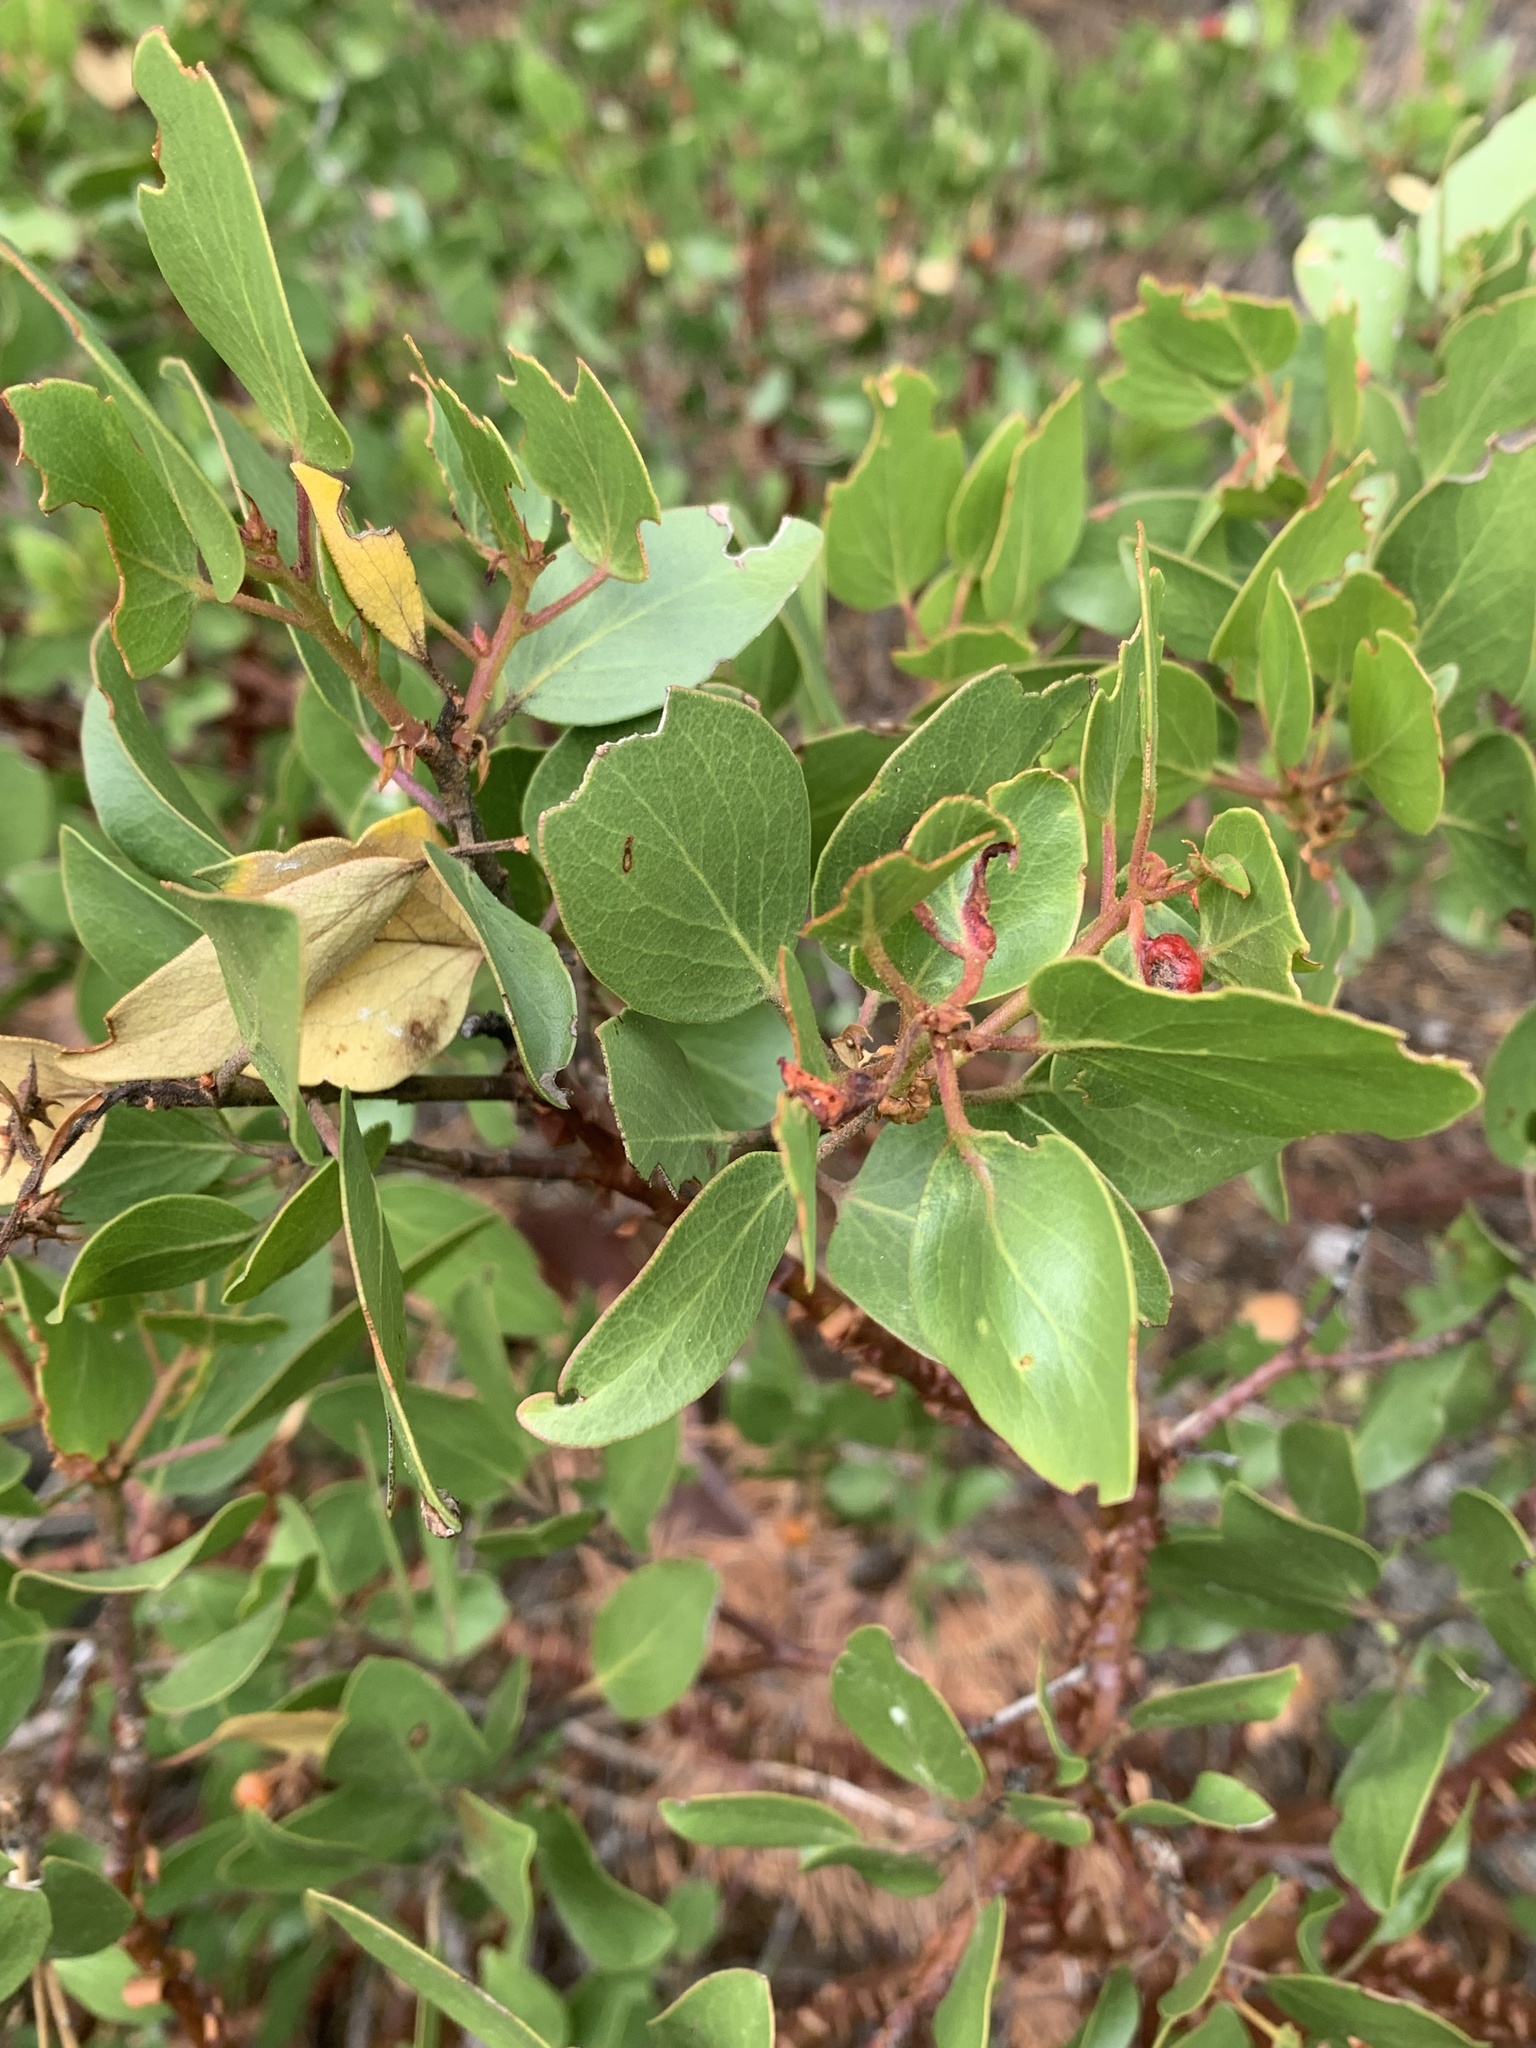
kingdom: Plantae
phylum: Tracheophyta
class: Magnoliopsida
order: Ericales
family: Ericaceae
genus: Arctostaphylos
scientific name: Arctostaphylos patula
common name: Green-leaf manzanita
